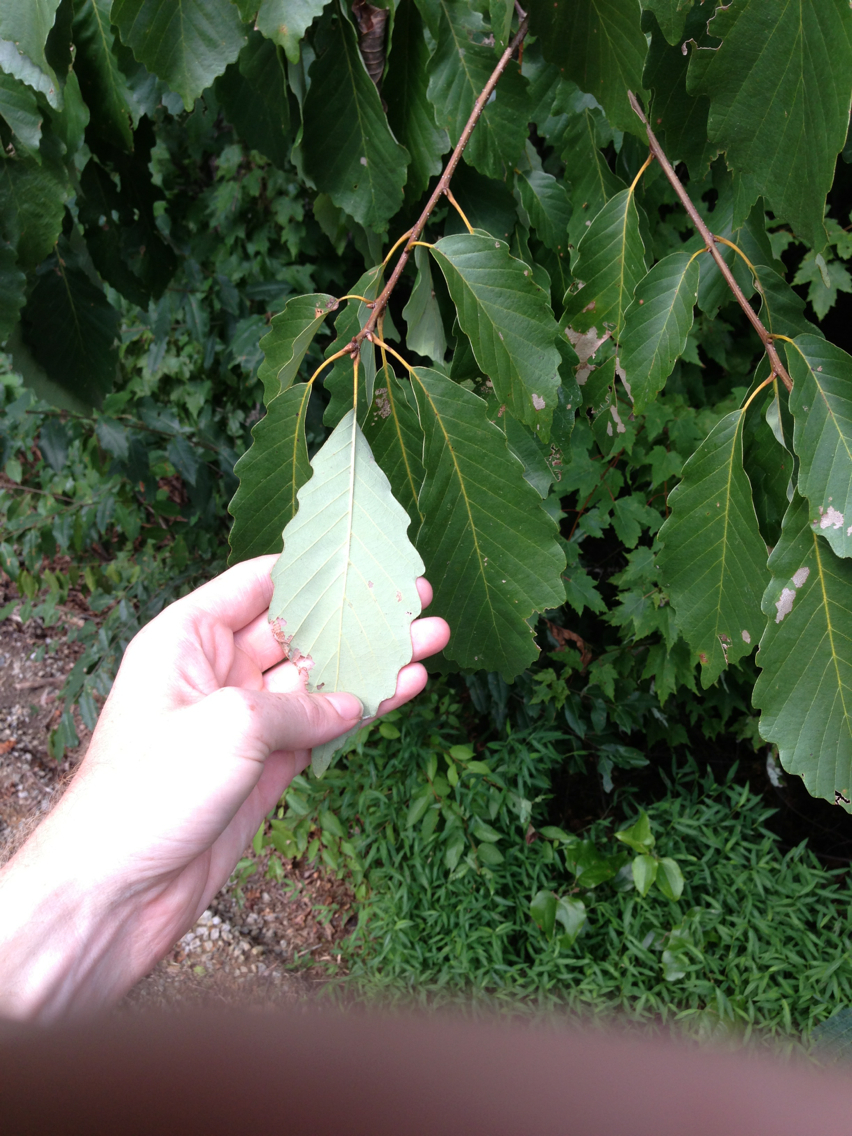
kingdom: Plantae
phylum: Tracheophyta
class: Magnoliopsida
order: Fagales
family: Fagaceae
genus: Quercus
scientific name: Quercus montana
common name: Chestnut oak
